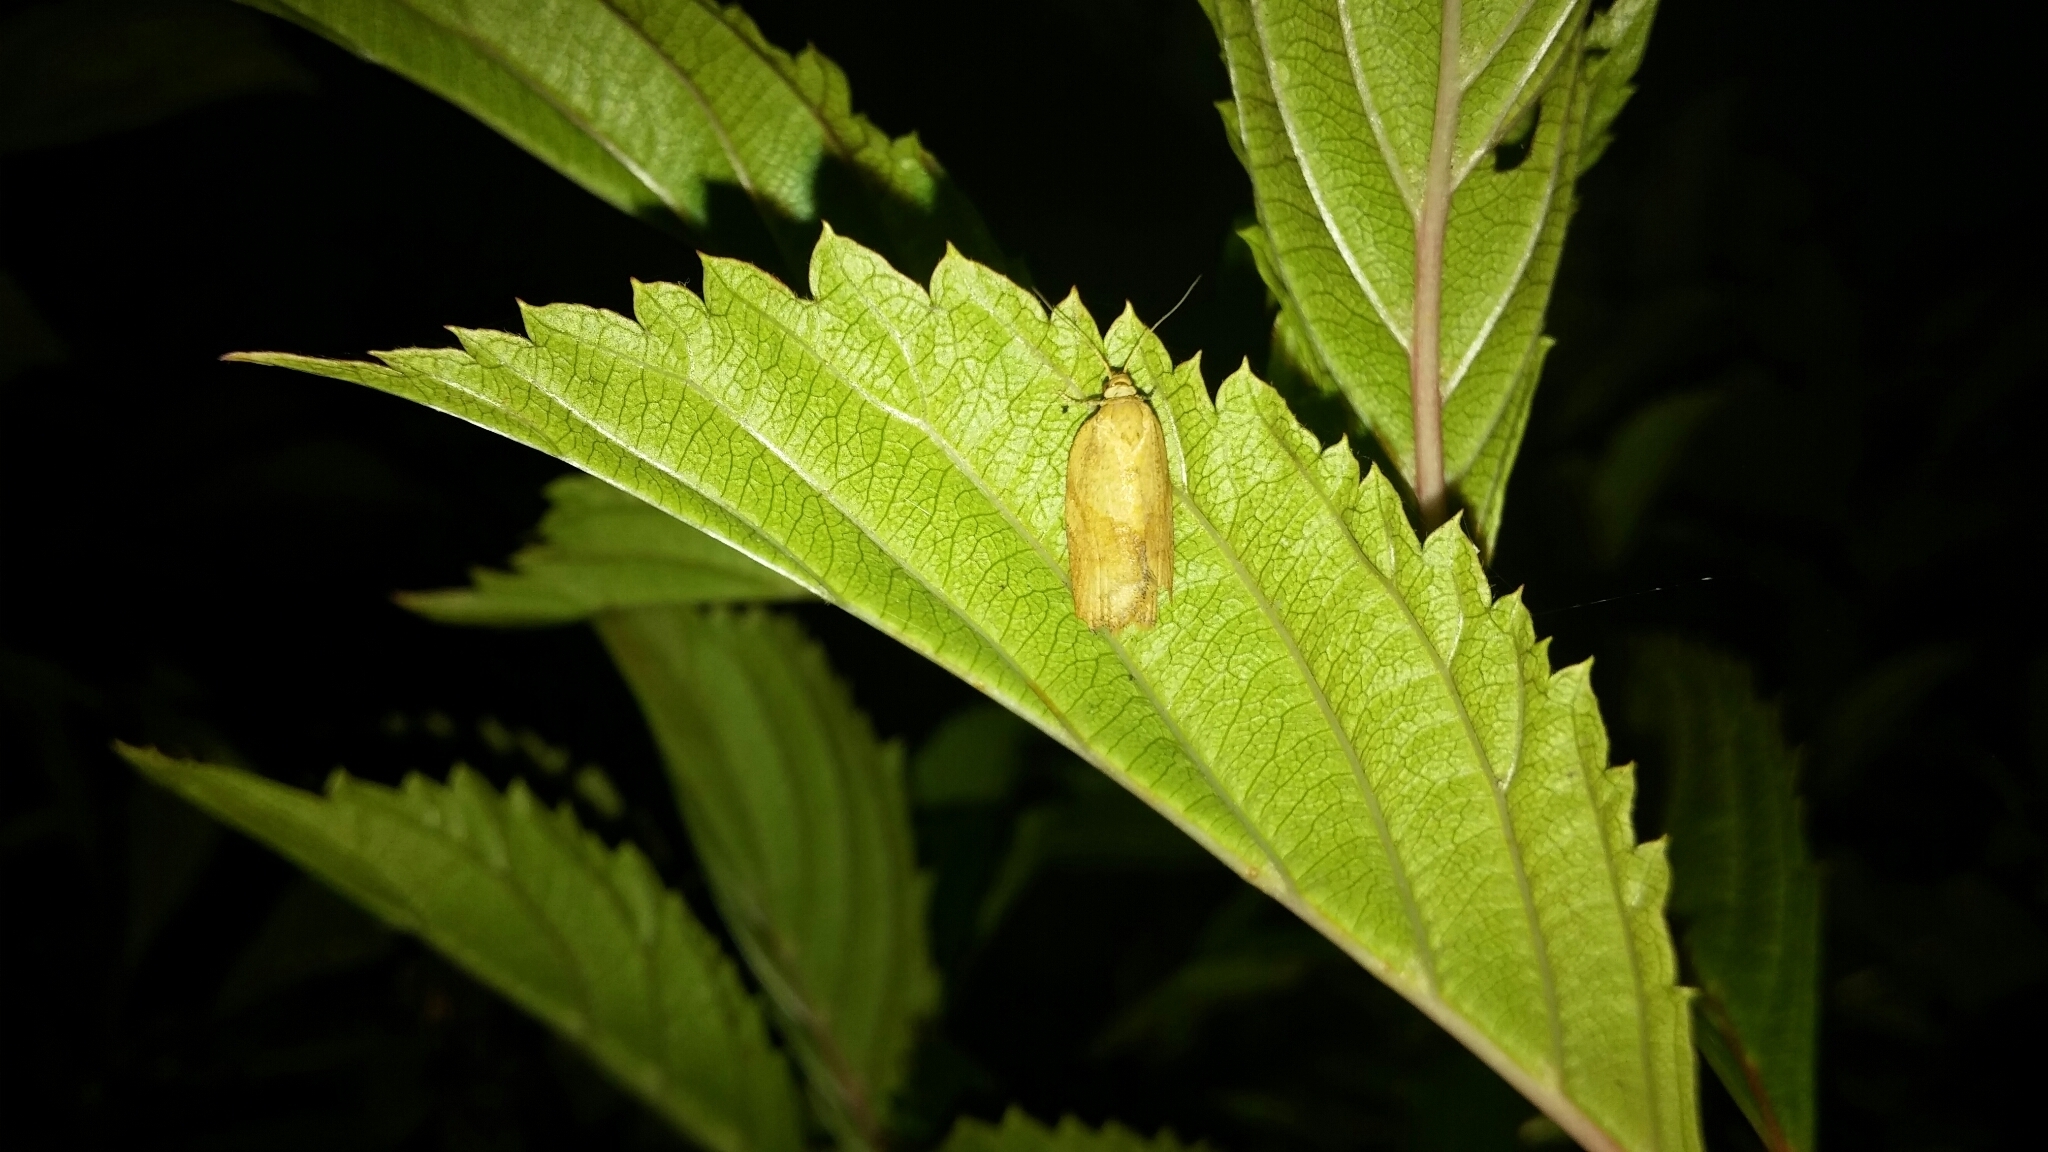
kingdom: Animalia
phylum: Arthropoda
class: Insecta
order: Lepidoptera
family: Tortricidae
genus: Epiphyas
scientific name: Epiphyas postvittana
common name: Light brown apple moth
